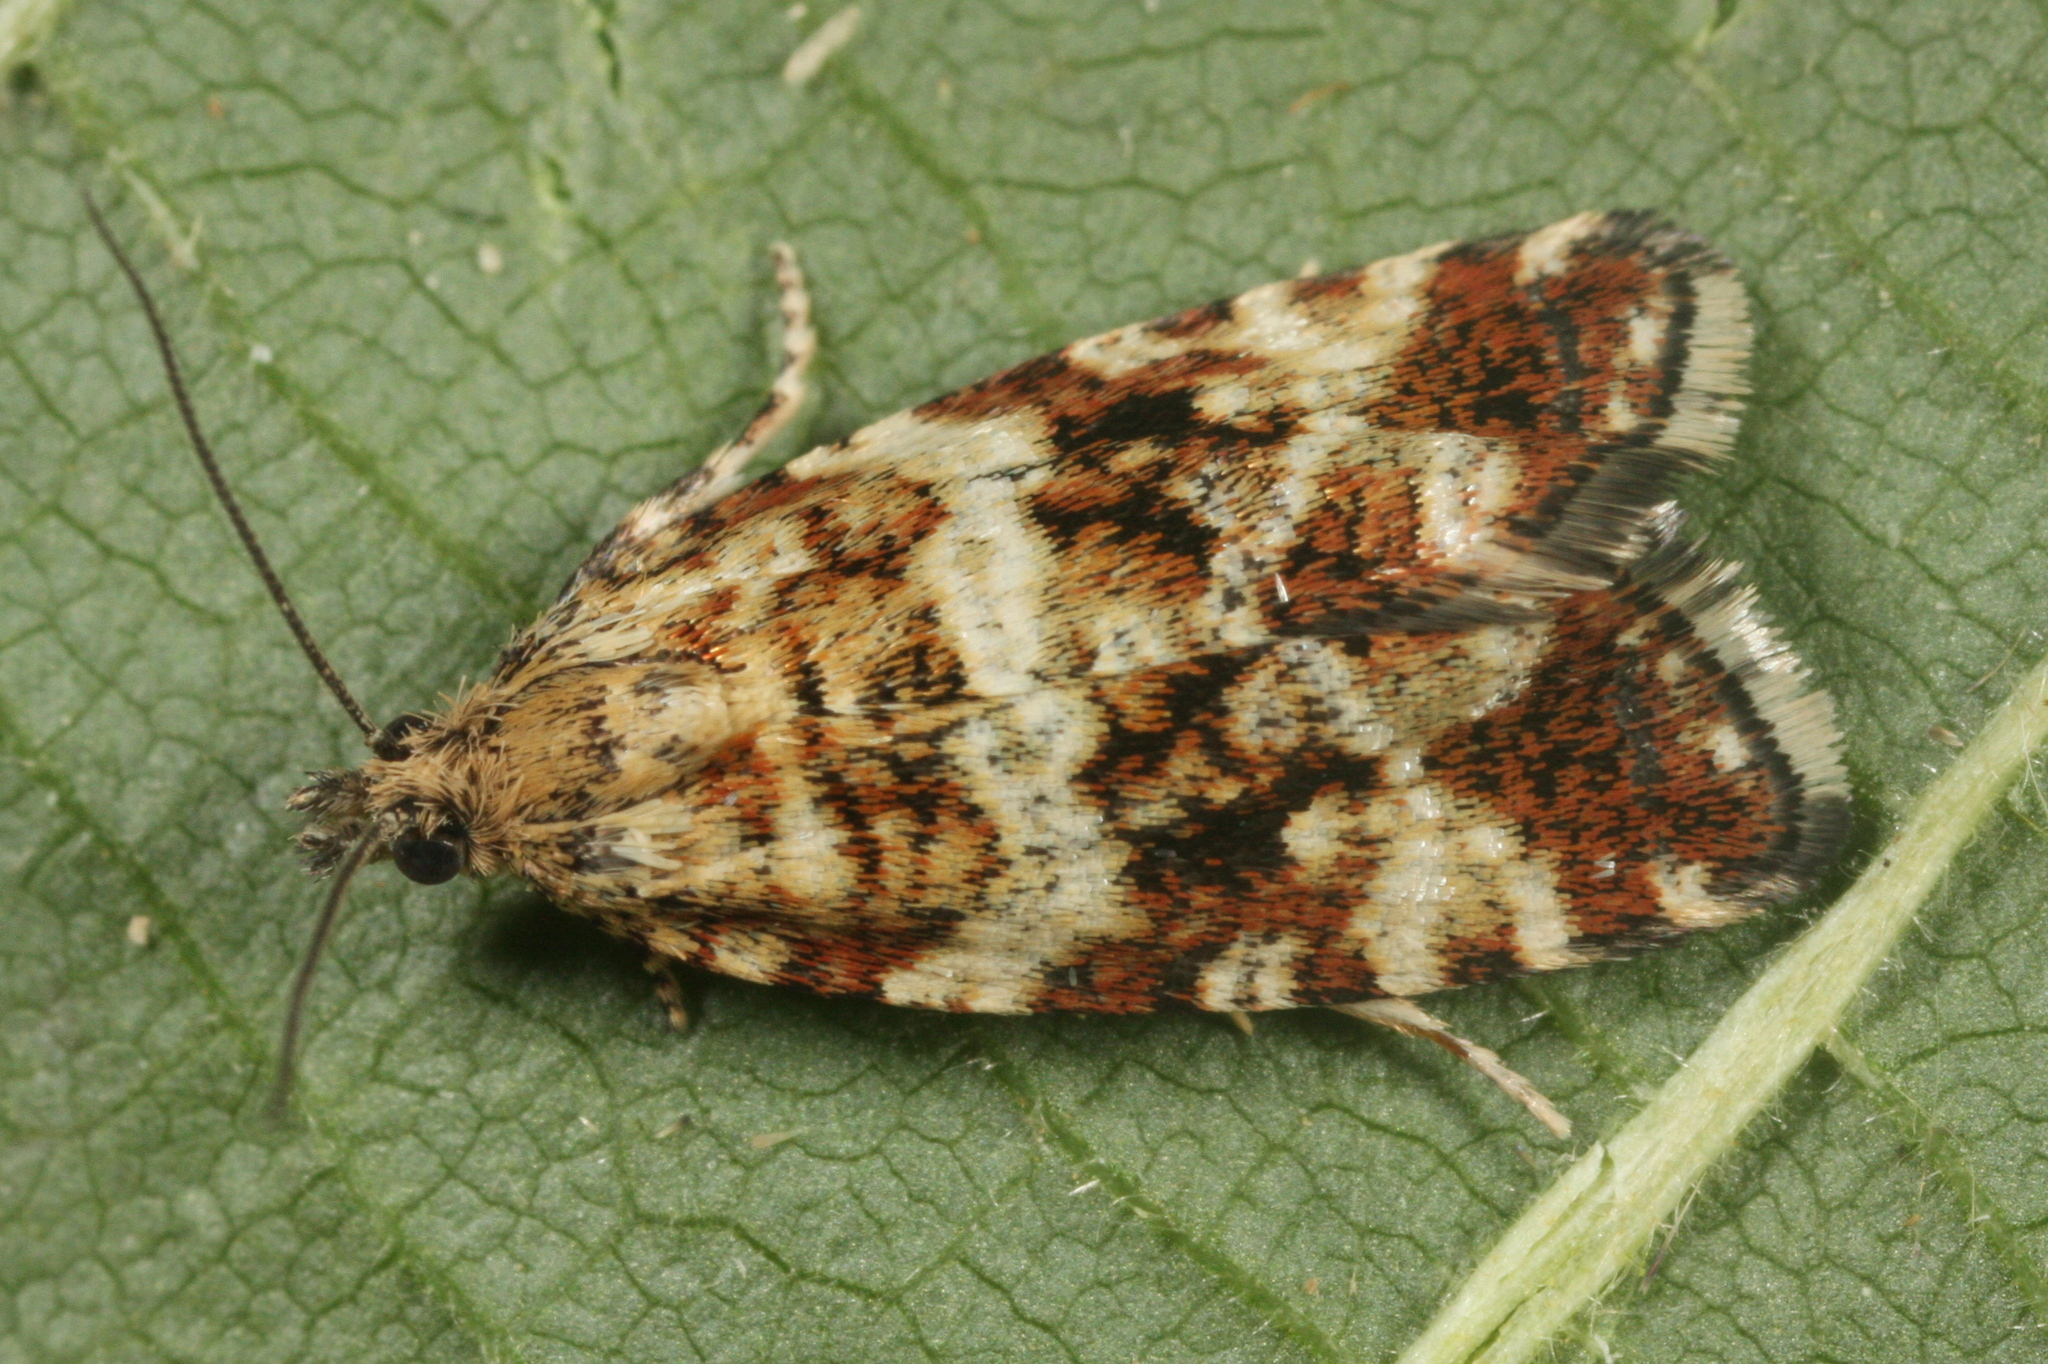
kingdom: Animalia
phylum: Arthropoda
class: Insecta
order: Lepidoptera
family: Tortricidae
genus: Olethreutes
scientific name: Olethreutes palustrana
